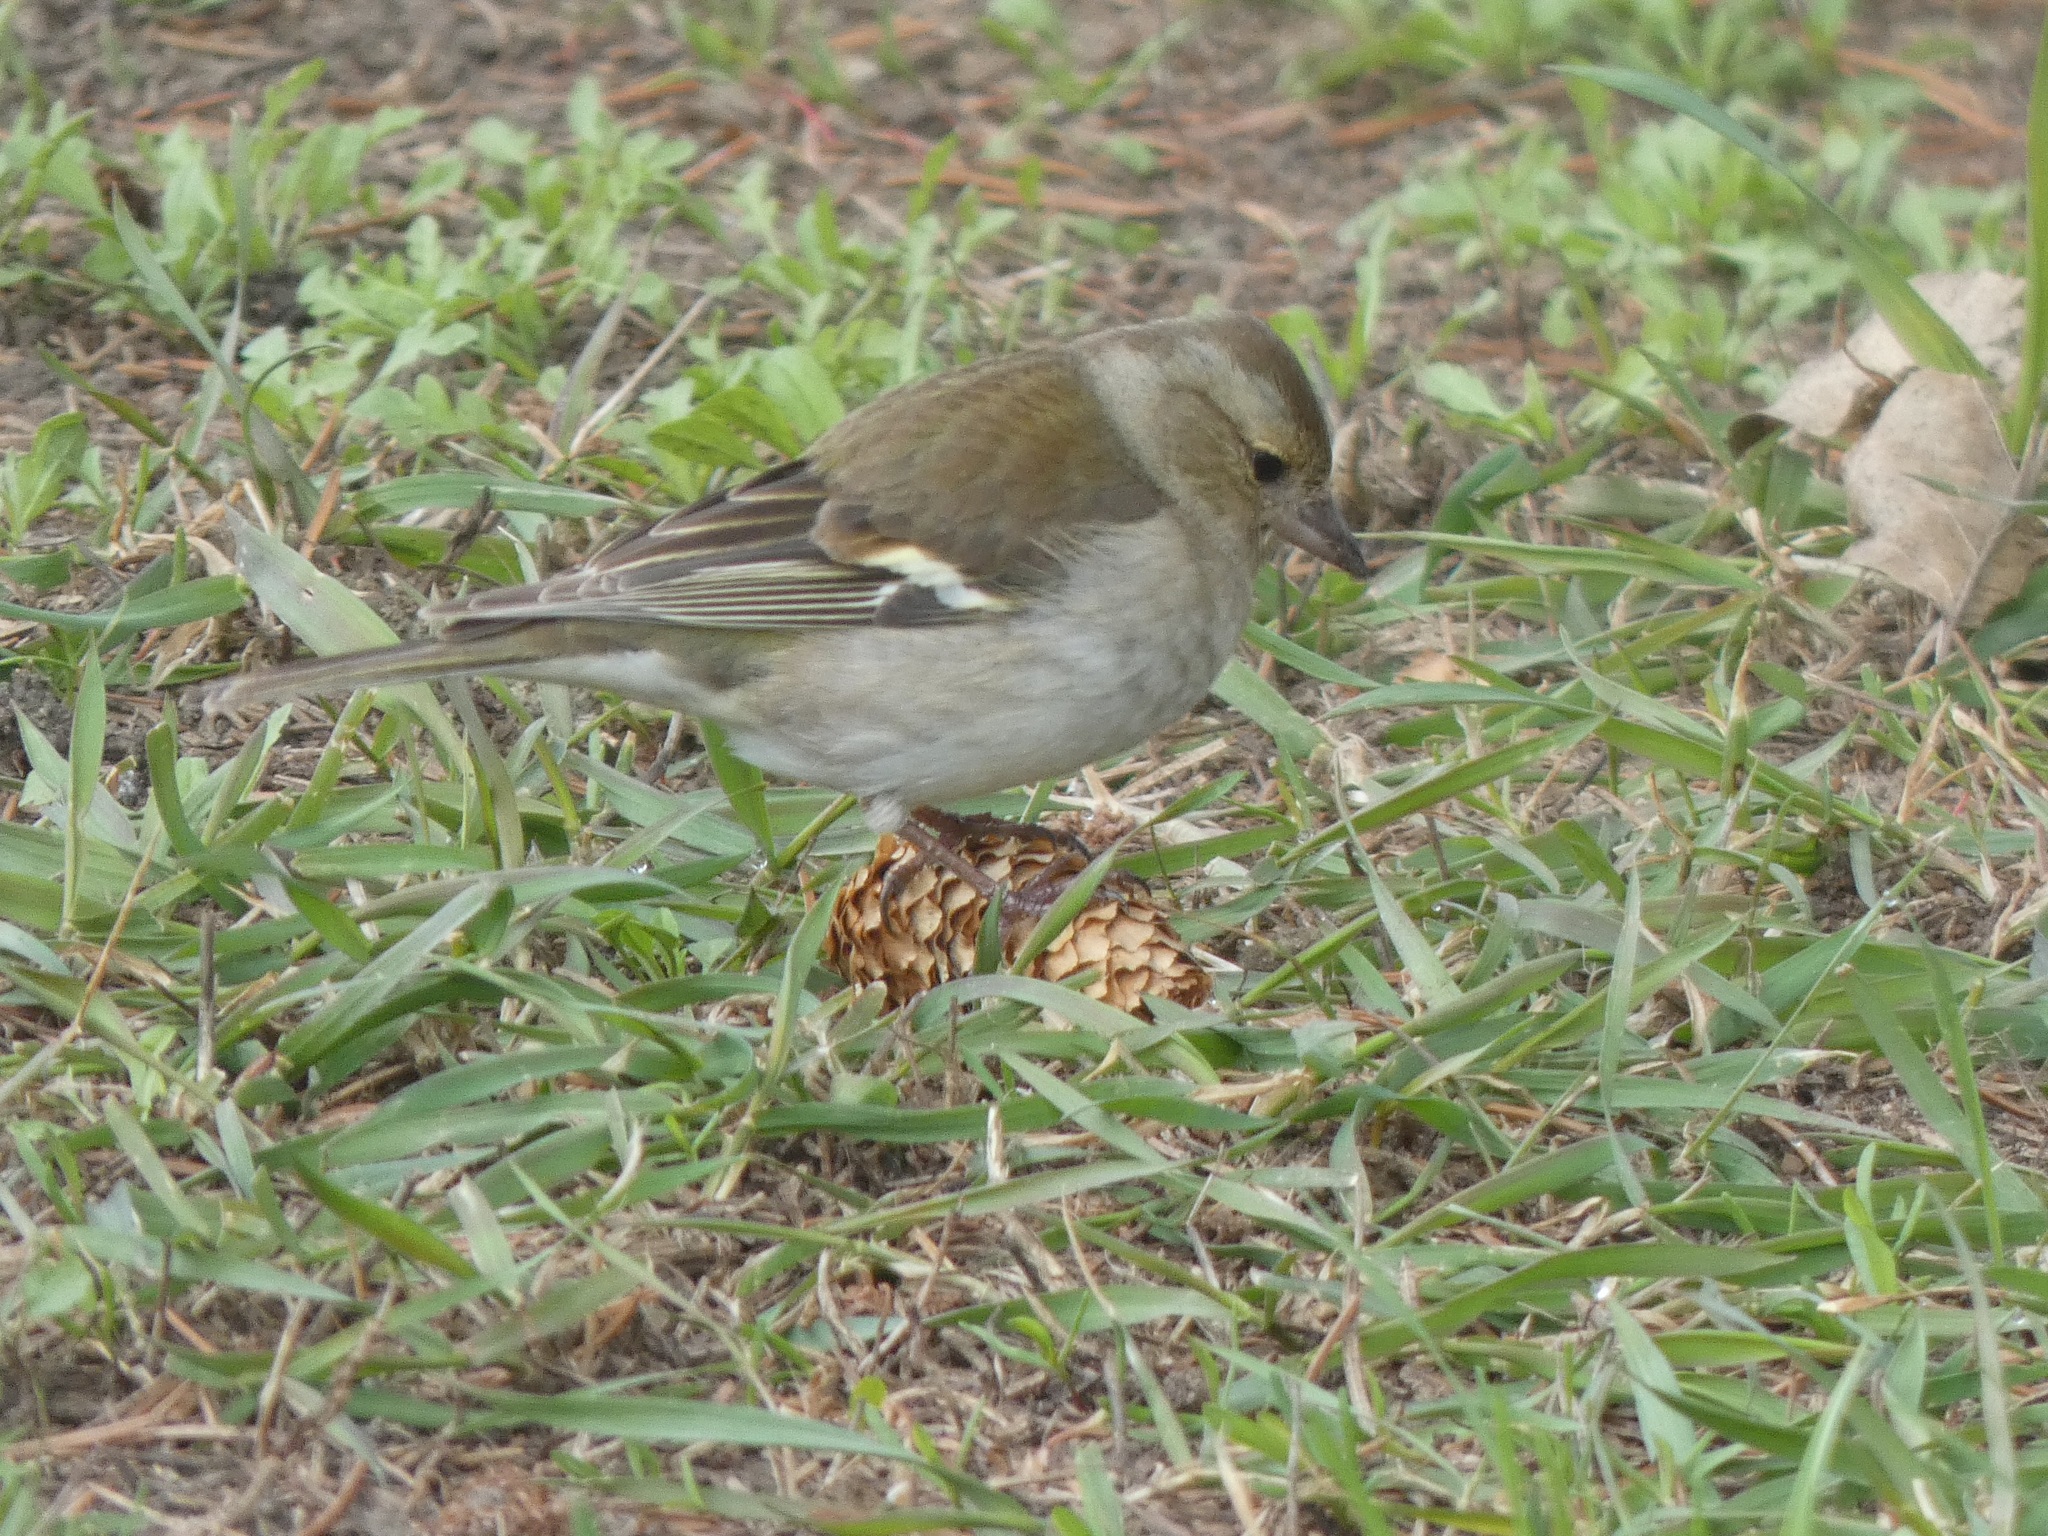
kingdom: Animalia
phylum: Chordata
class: Aves
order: Passeriformes
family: Fringillidae
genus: Fringilla
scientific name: Fringilla coelebs
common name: Common chaffinch
